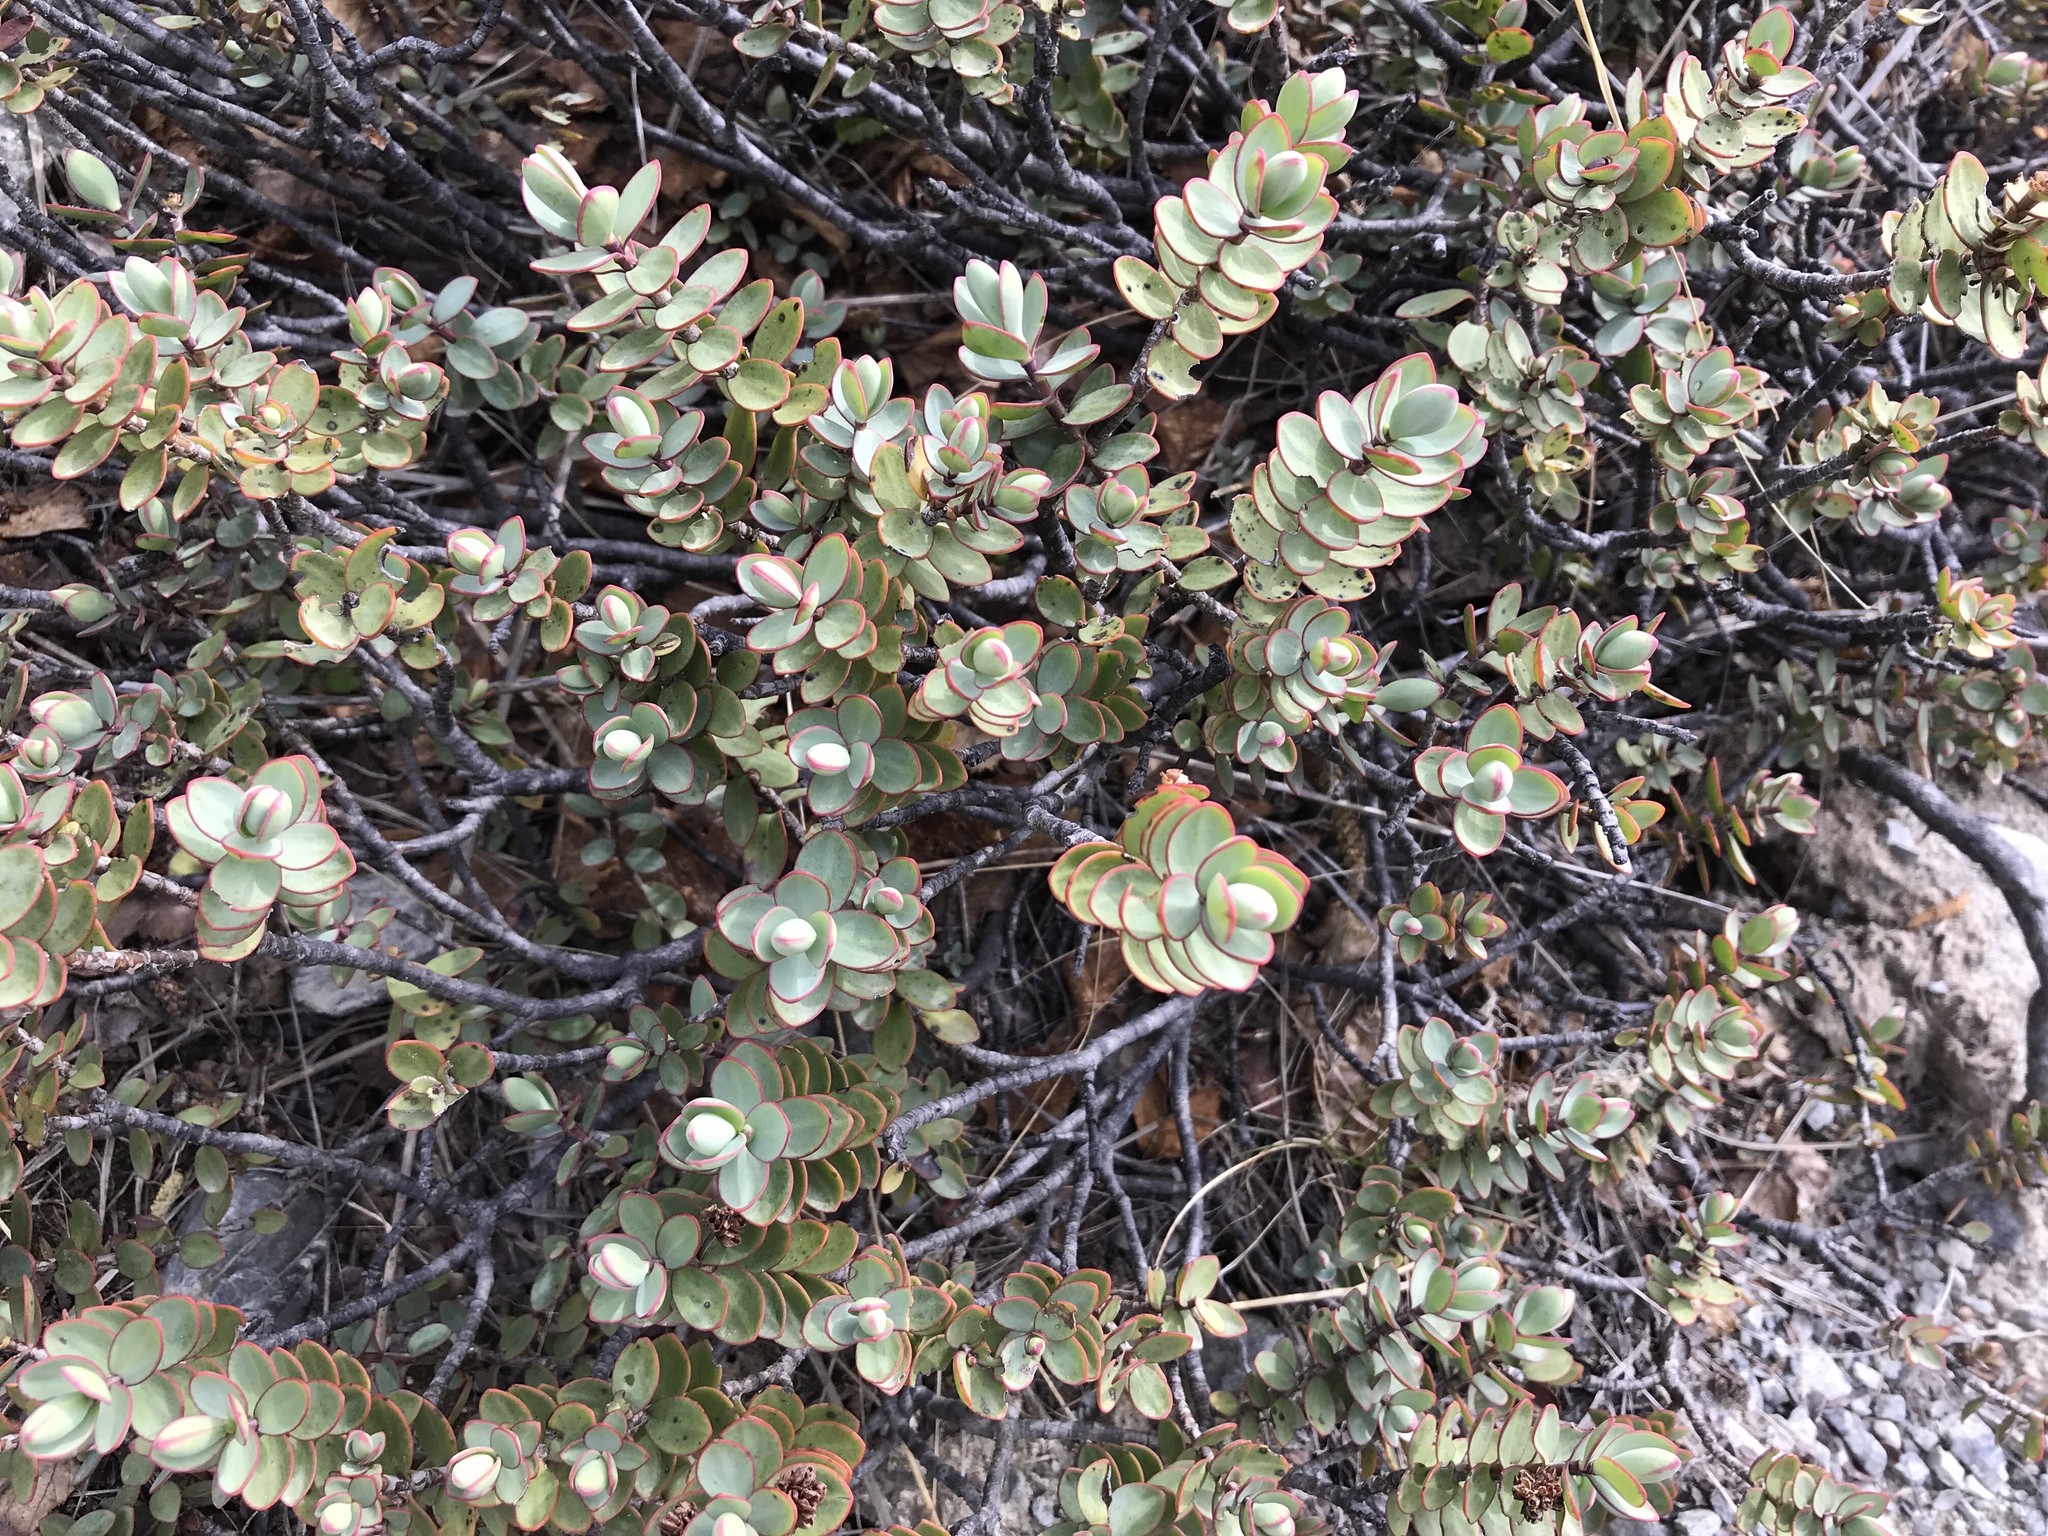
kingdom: Plantae
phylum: Tracheophyta
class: Magnoliopsida
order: Lamiales
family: Plantaginaceae
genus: Veronica
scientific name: Veronica pinguifolia
